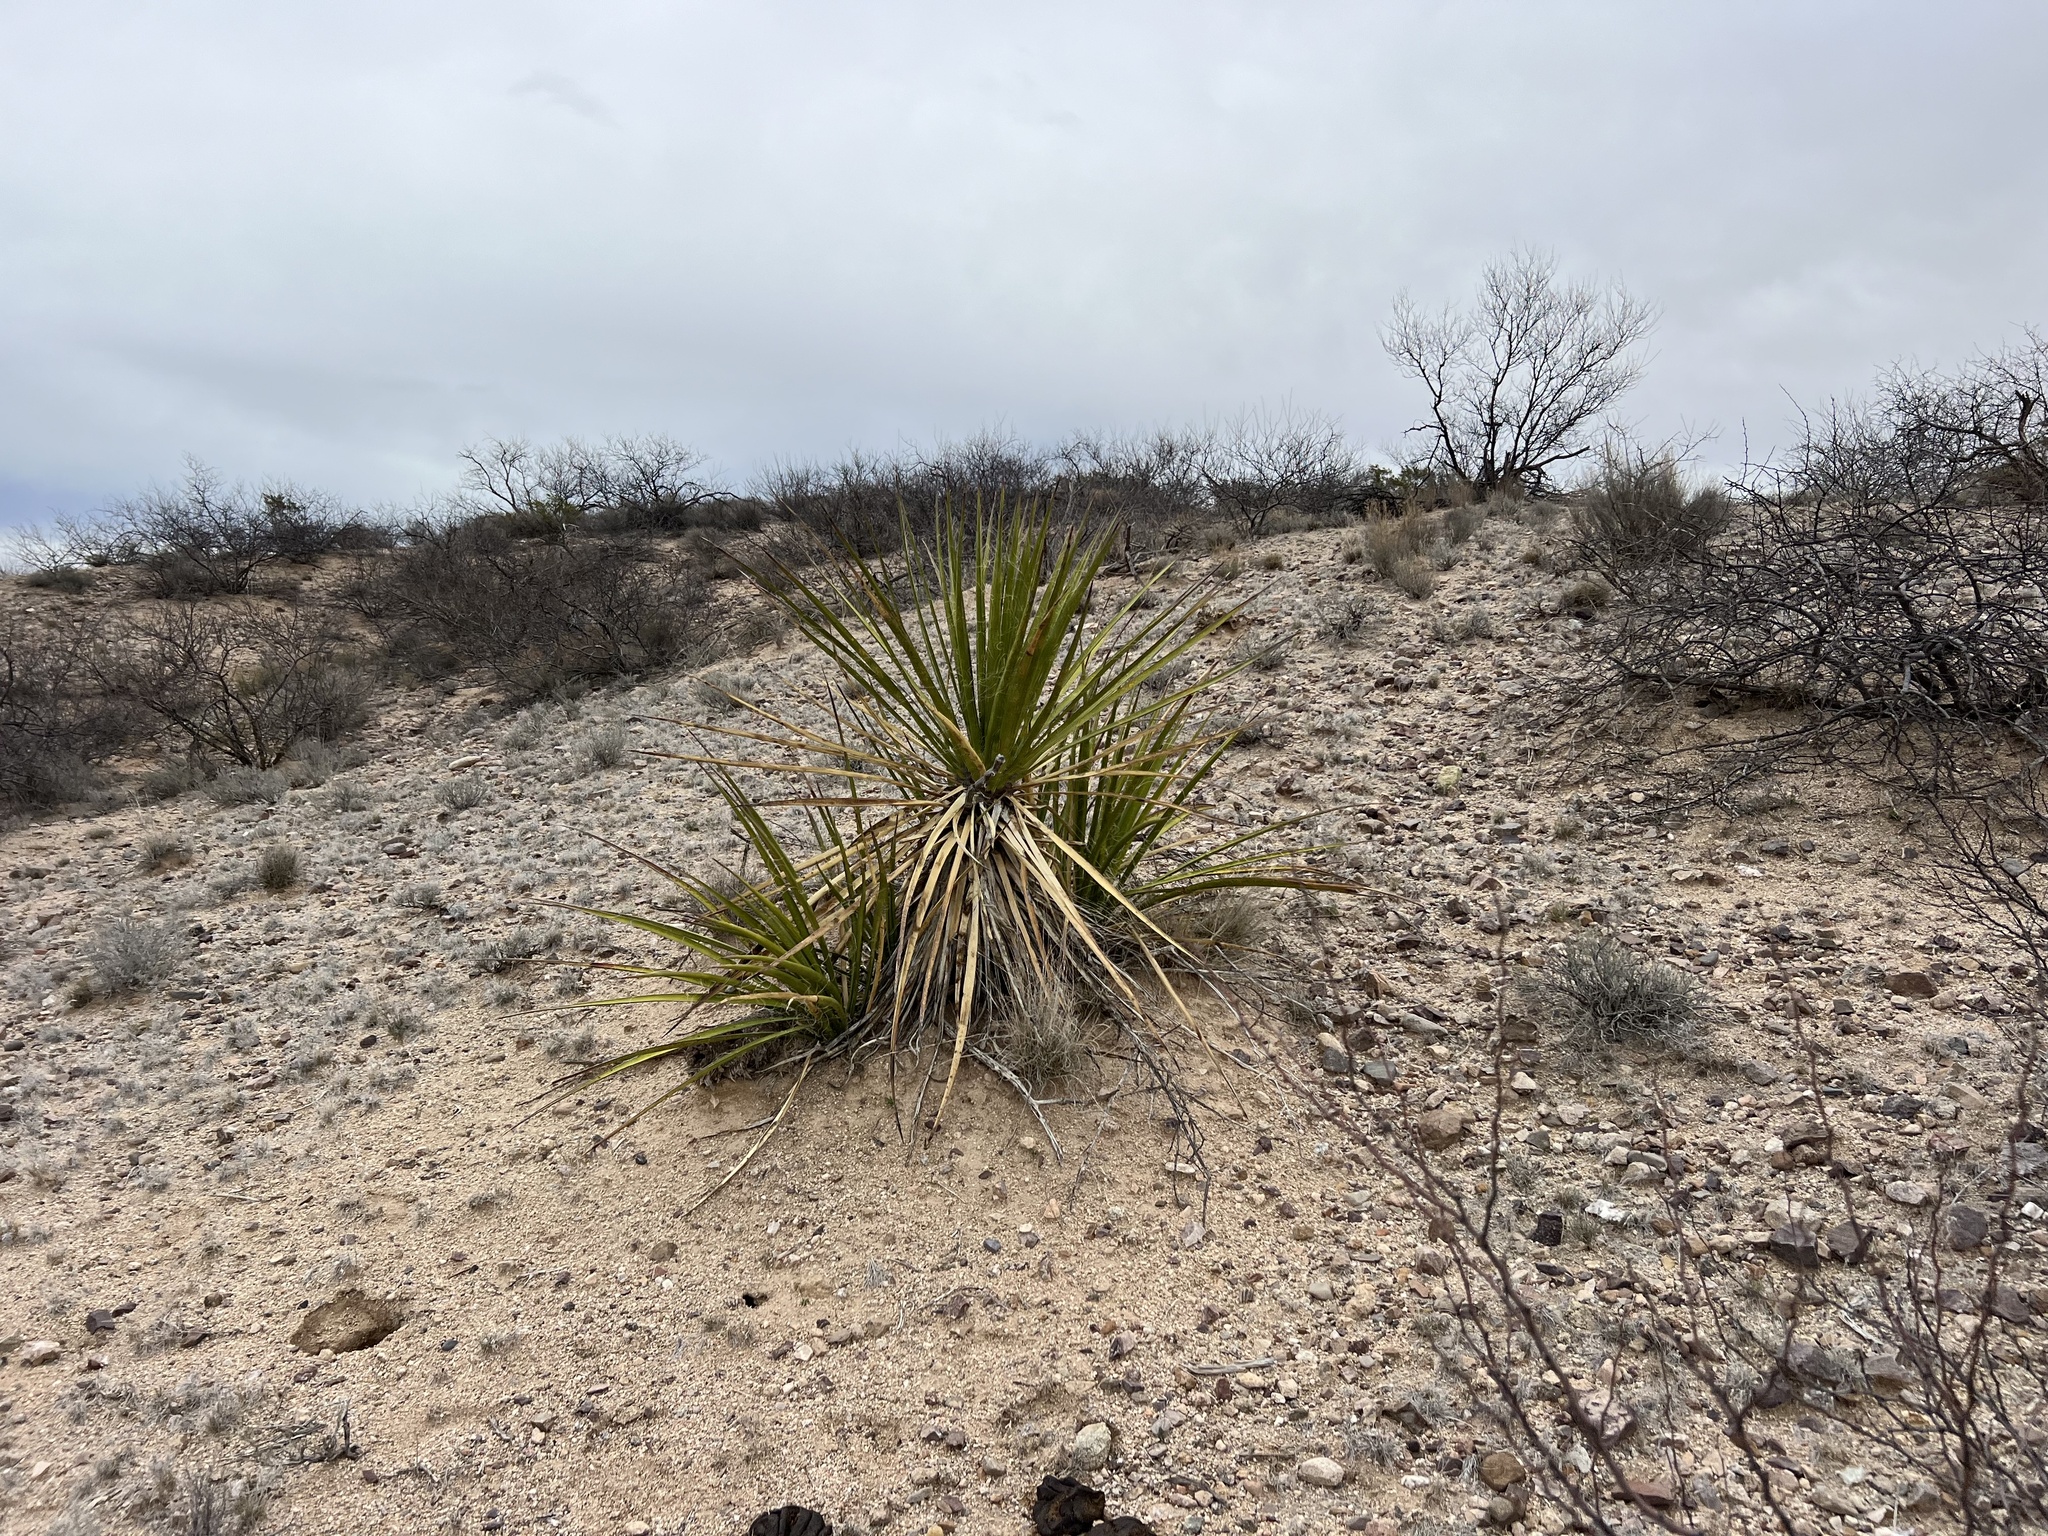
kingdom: Plantae
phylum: Tracheophyta
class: Liliopsida
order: Asparagales
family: Asparagaceae
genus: Yucca
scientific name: Yucca baccata
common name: Banana yucca
